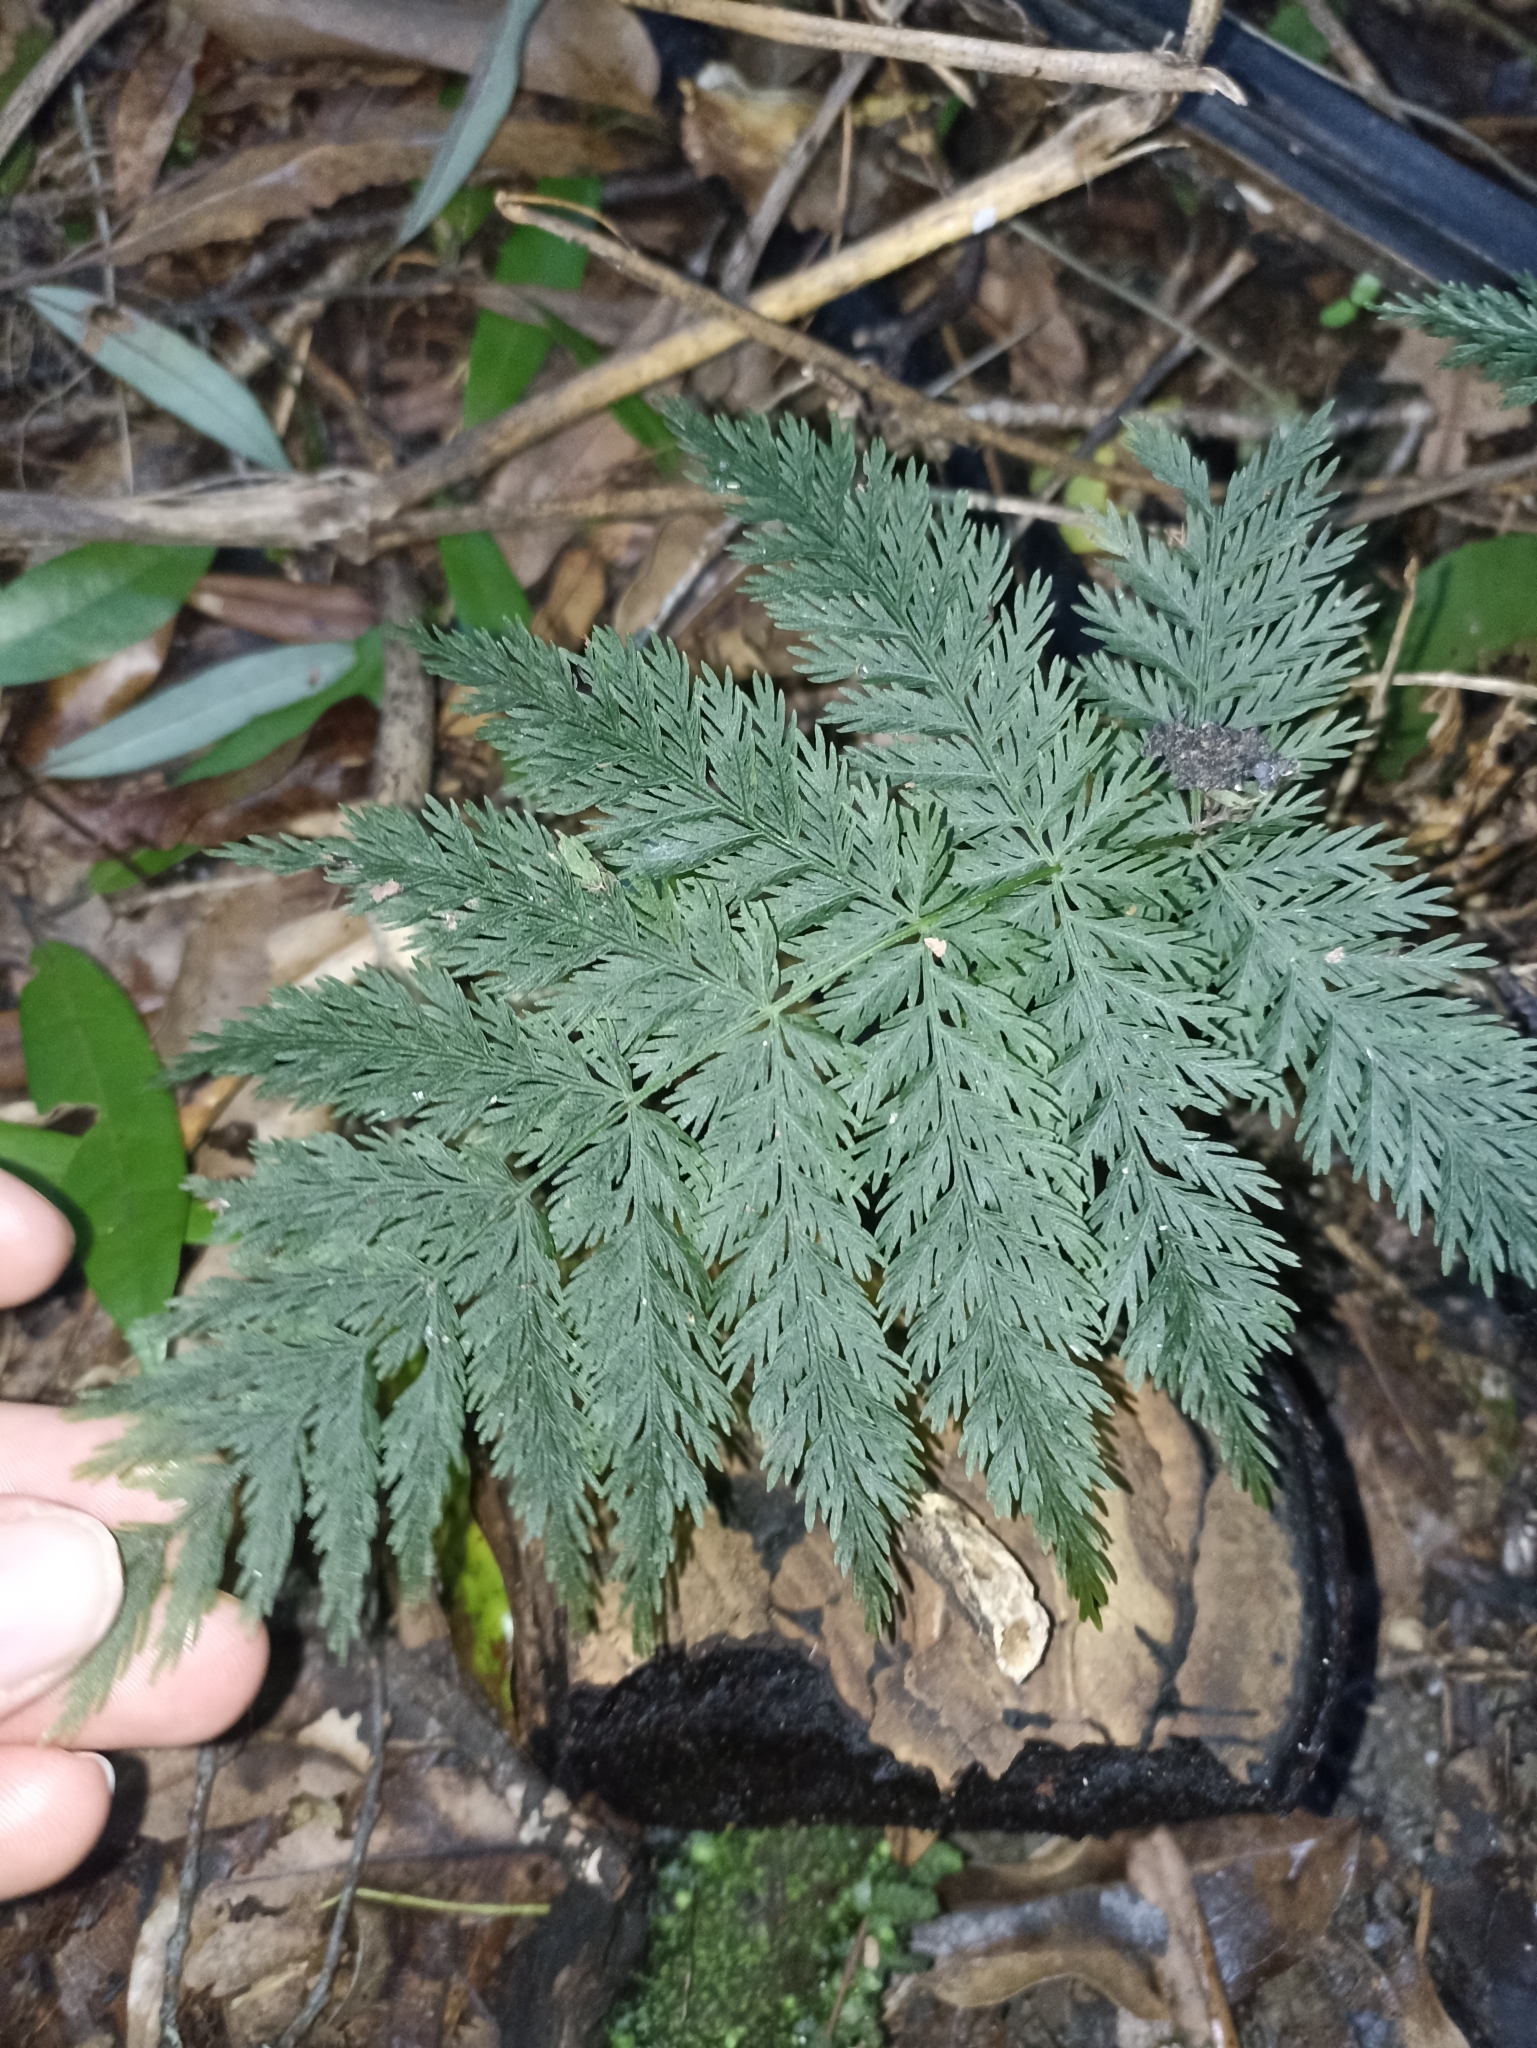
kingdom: Plantae
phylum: Tracheophyta
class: Polypodiopsida
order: Osmundales
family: Osmundaceae
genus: Leptopteris
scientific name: Leptopteris hymenophylloides
